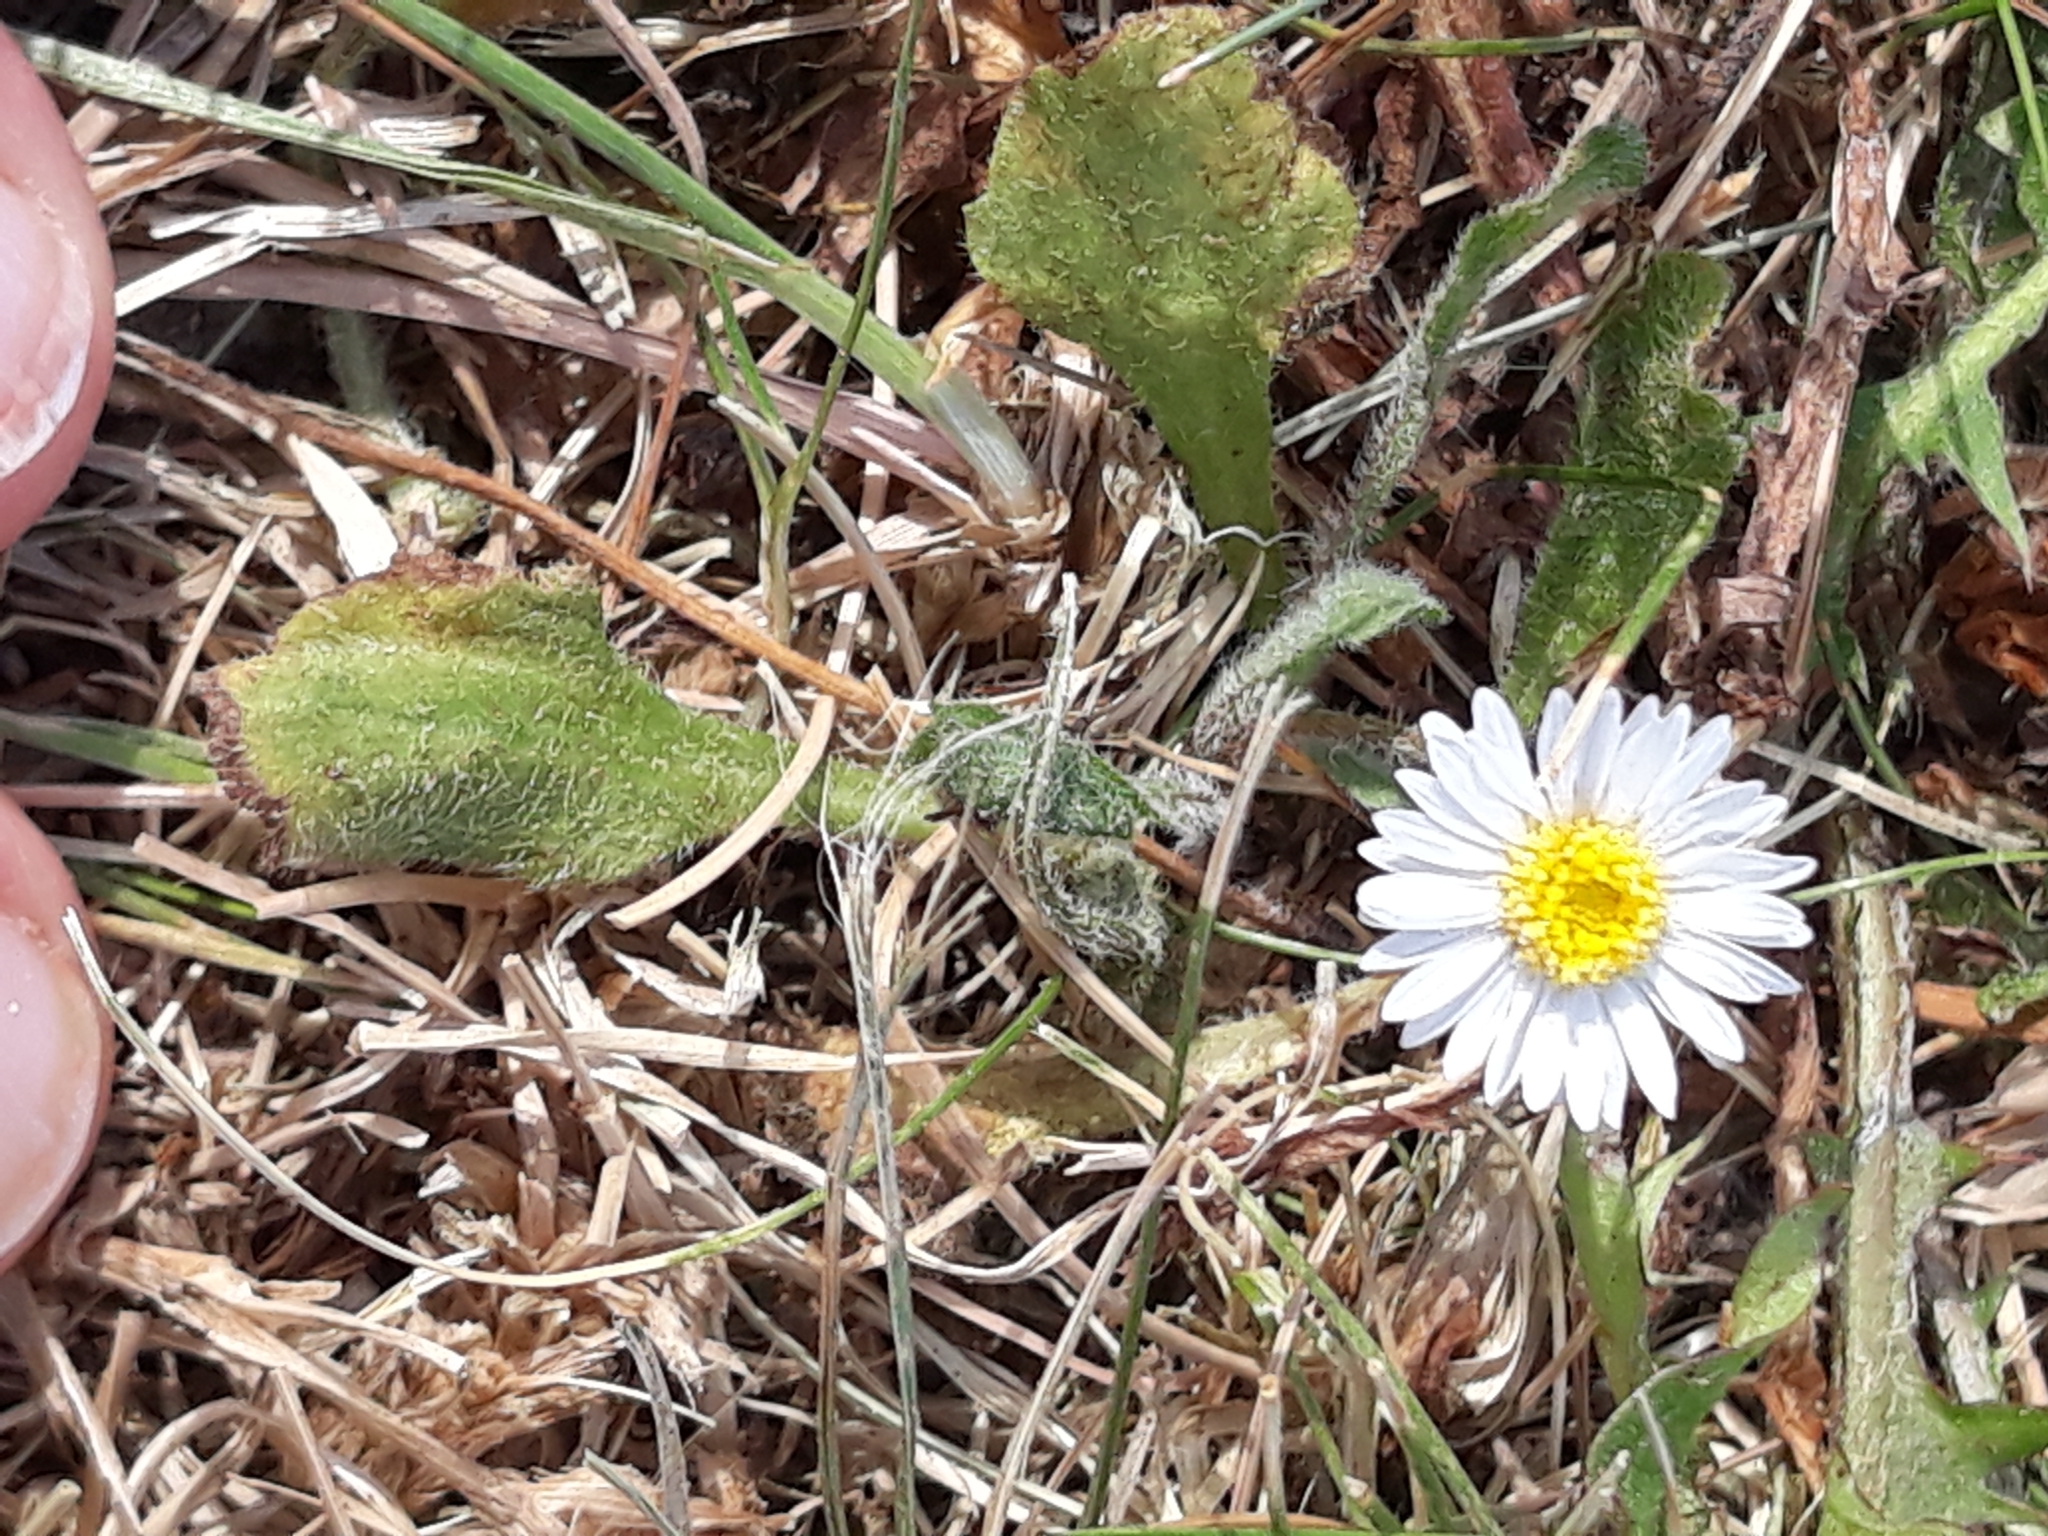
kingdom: Plantae
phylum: Tracheophyta
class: Magnoliopsida
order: Asterales
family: Asteraceae
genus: Bellis
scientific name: Bellis perennis
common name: Lawndaisy
